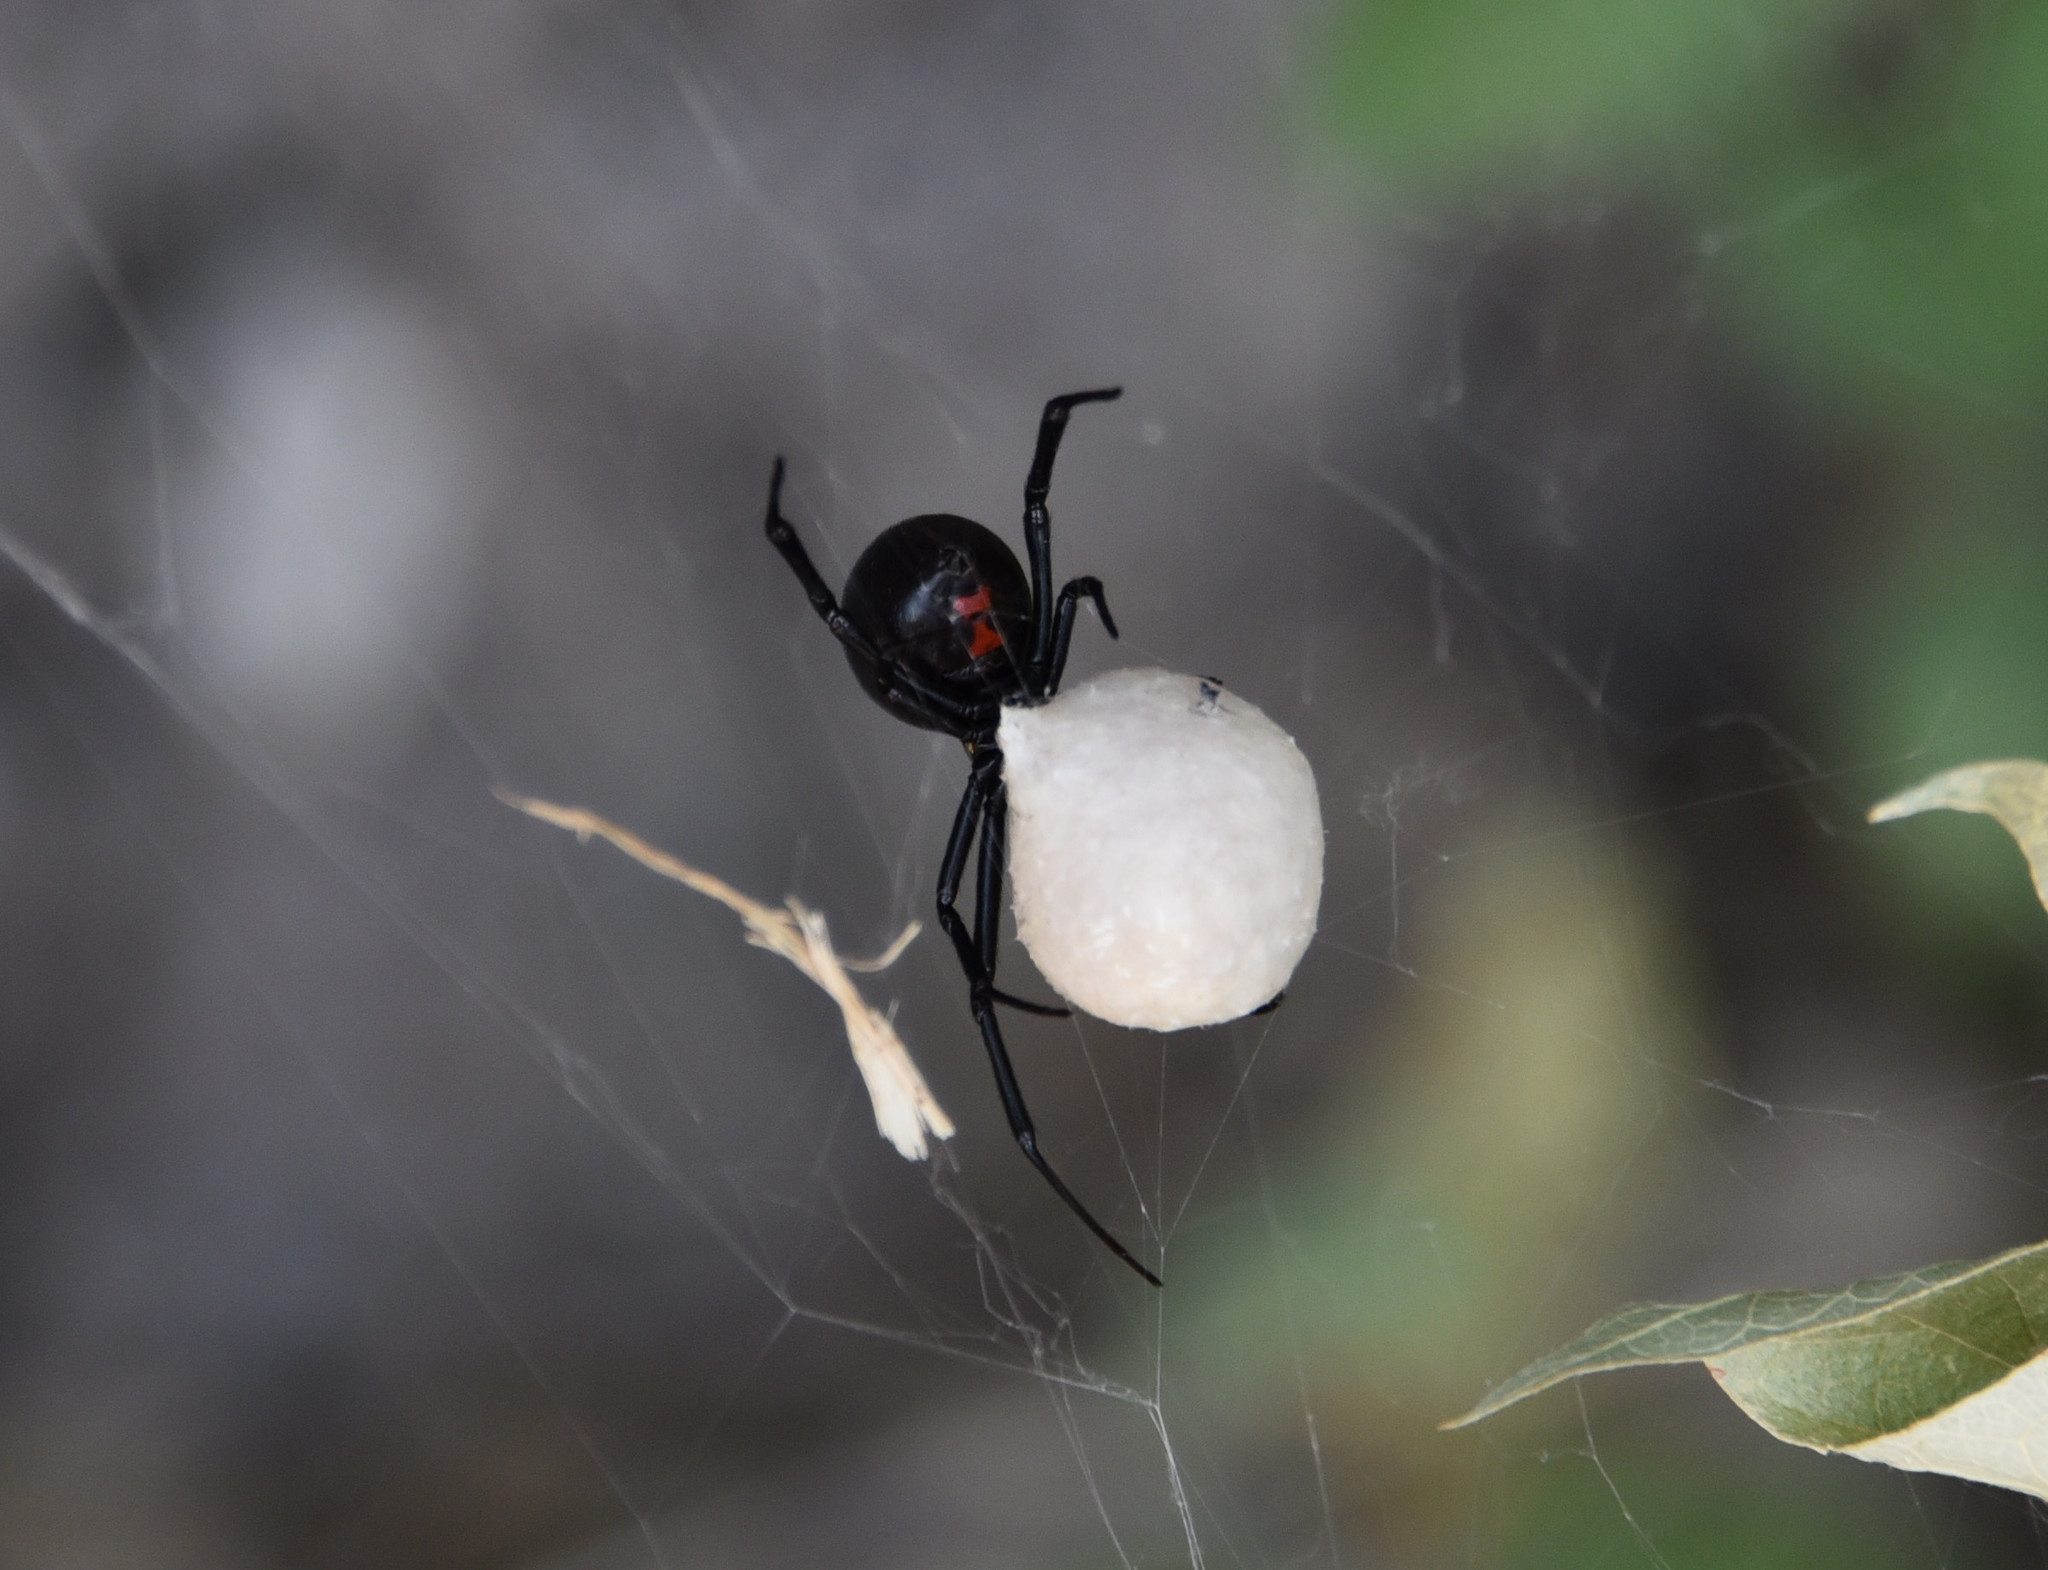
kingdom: Animalia
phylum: Arthropoda
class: Arachnida
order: Araneae
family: Theridiidae
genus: Latrodectus
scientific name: Latrodectus hesperus
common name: Western black widow
